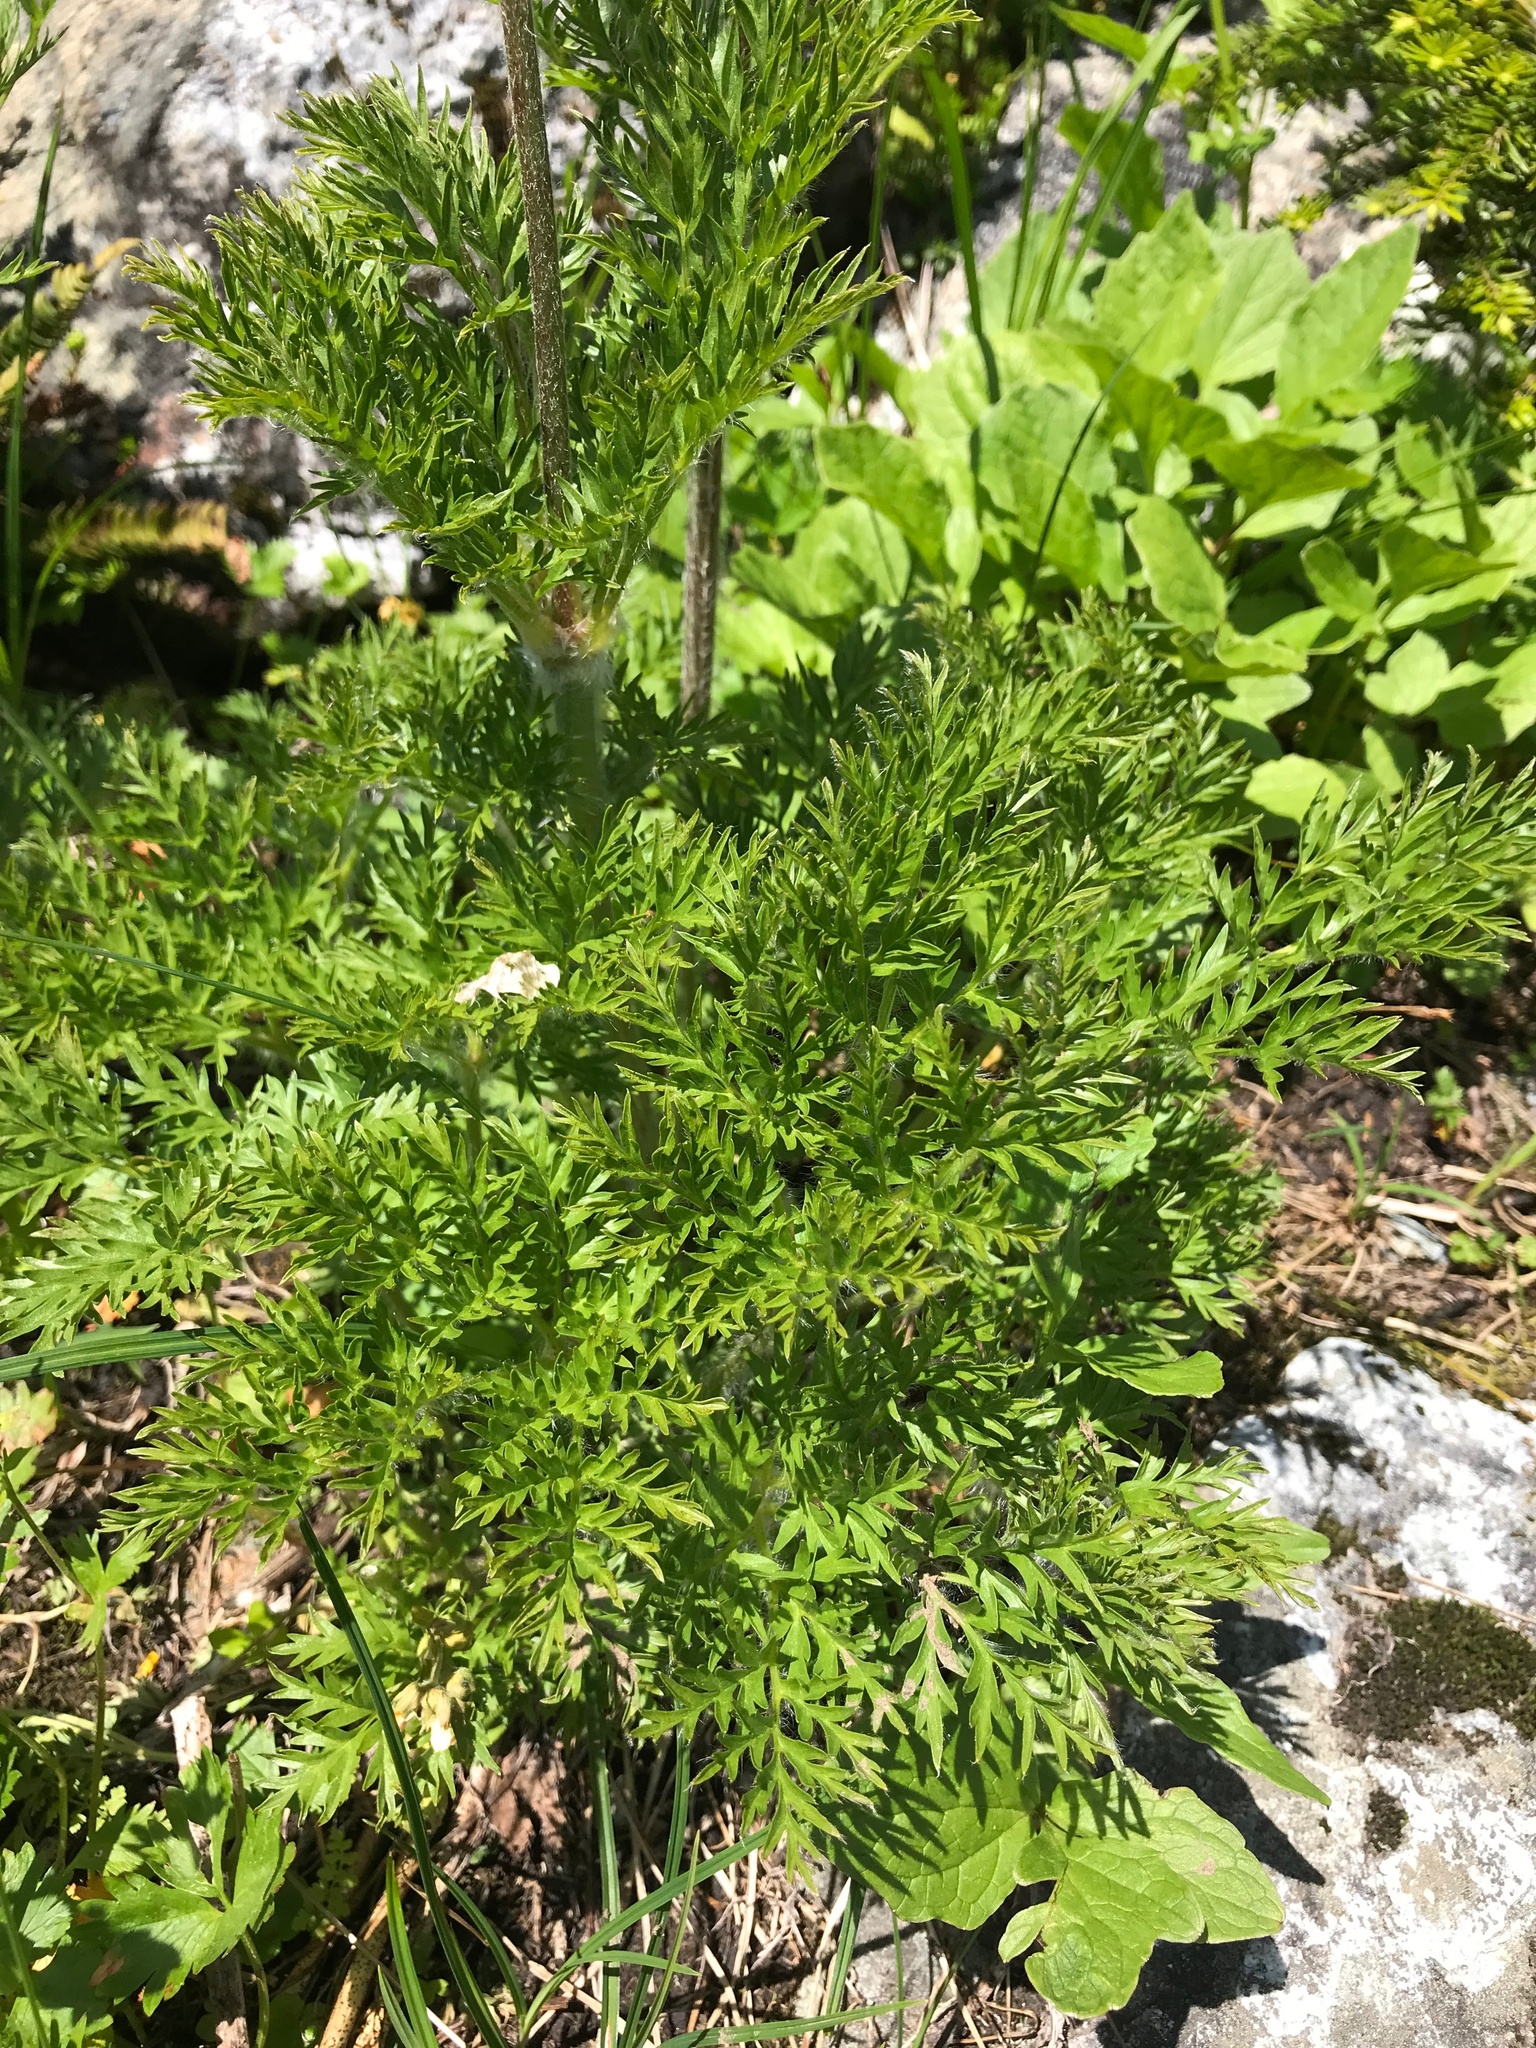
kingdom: Plantae
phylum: Tracheophyta
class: Magnoliopsida
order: Ranunculales
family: Ranunculaceae
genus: Pulsatilla
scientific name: Pulsatilla occidentalis
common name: Mountain pasqueflower
